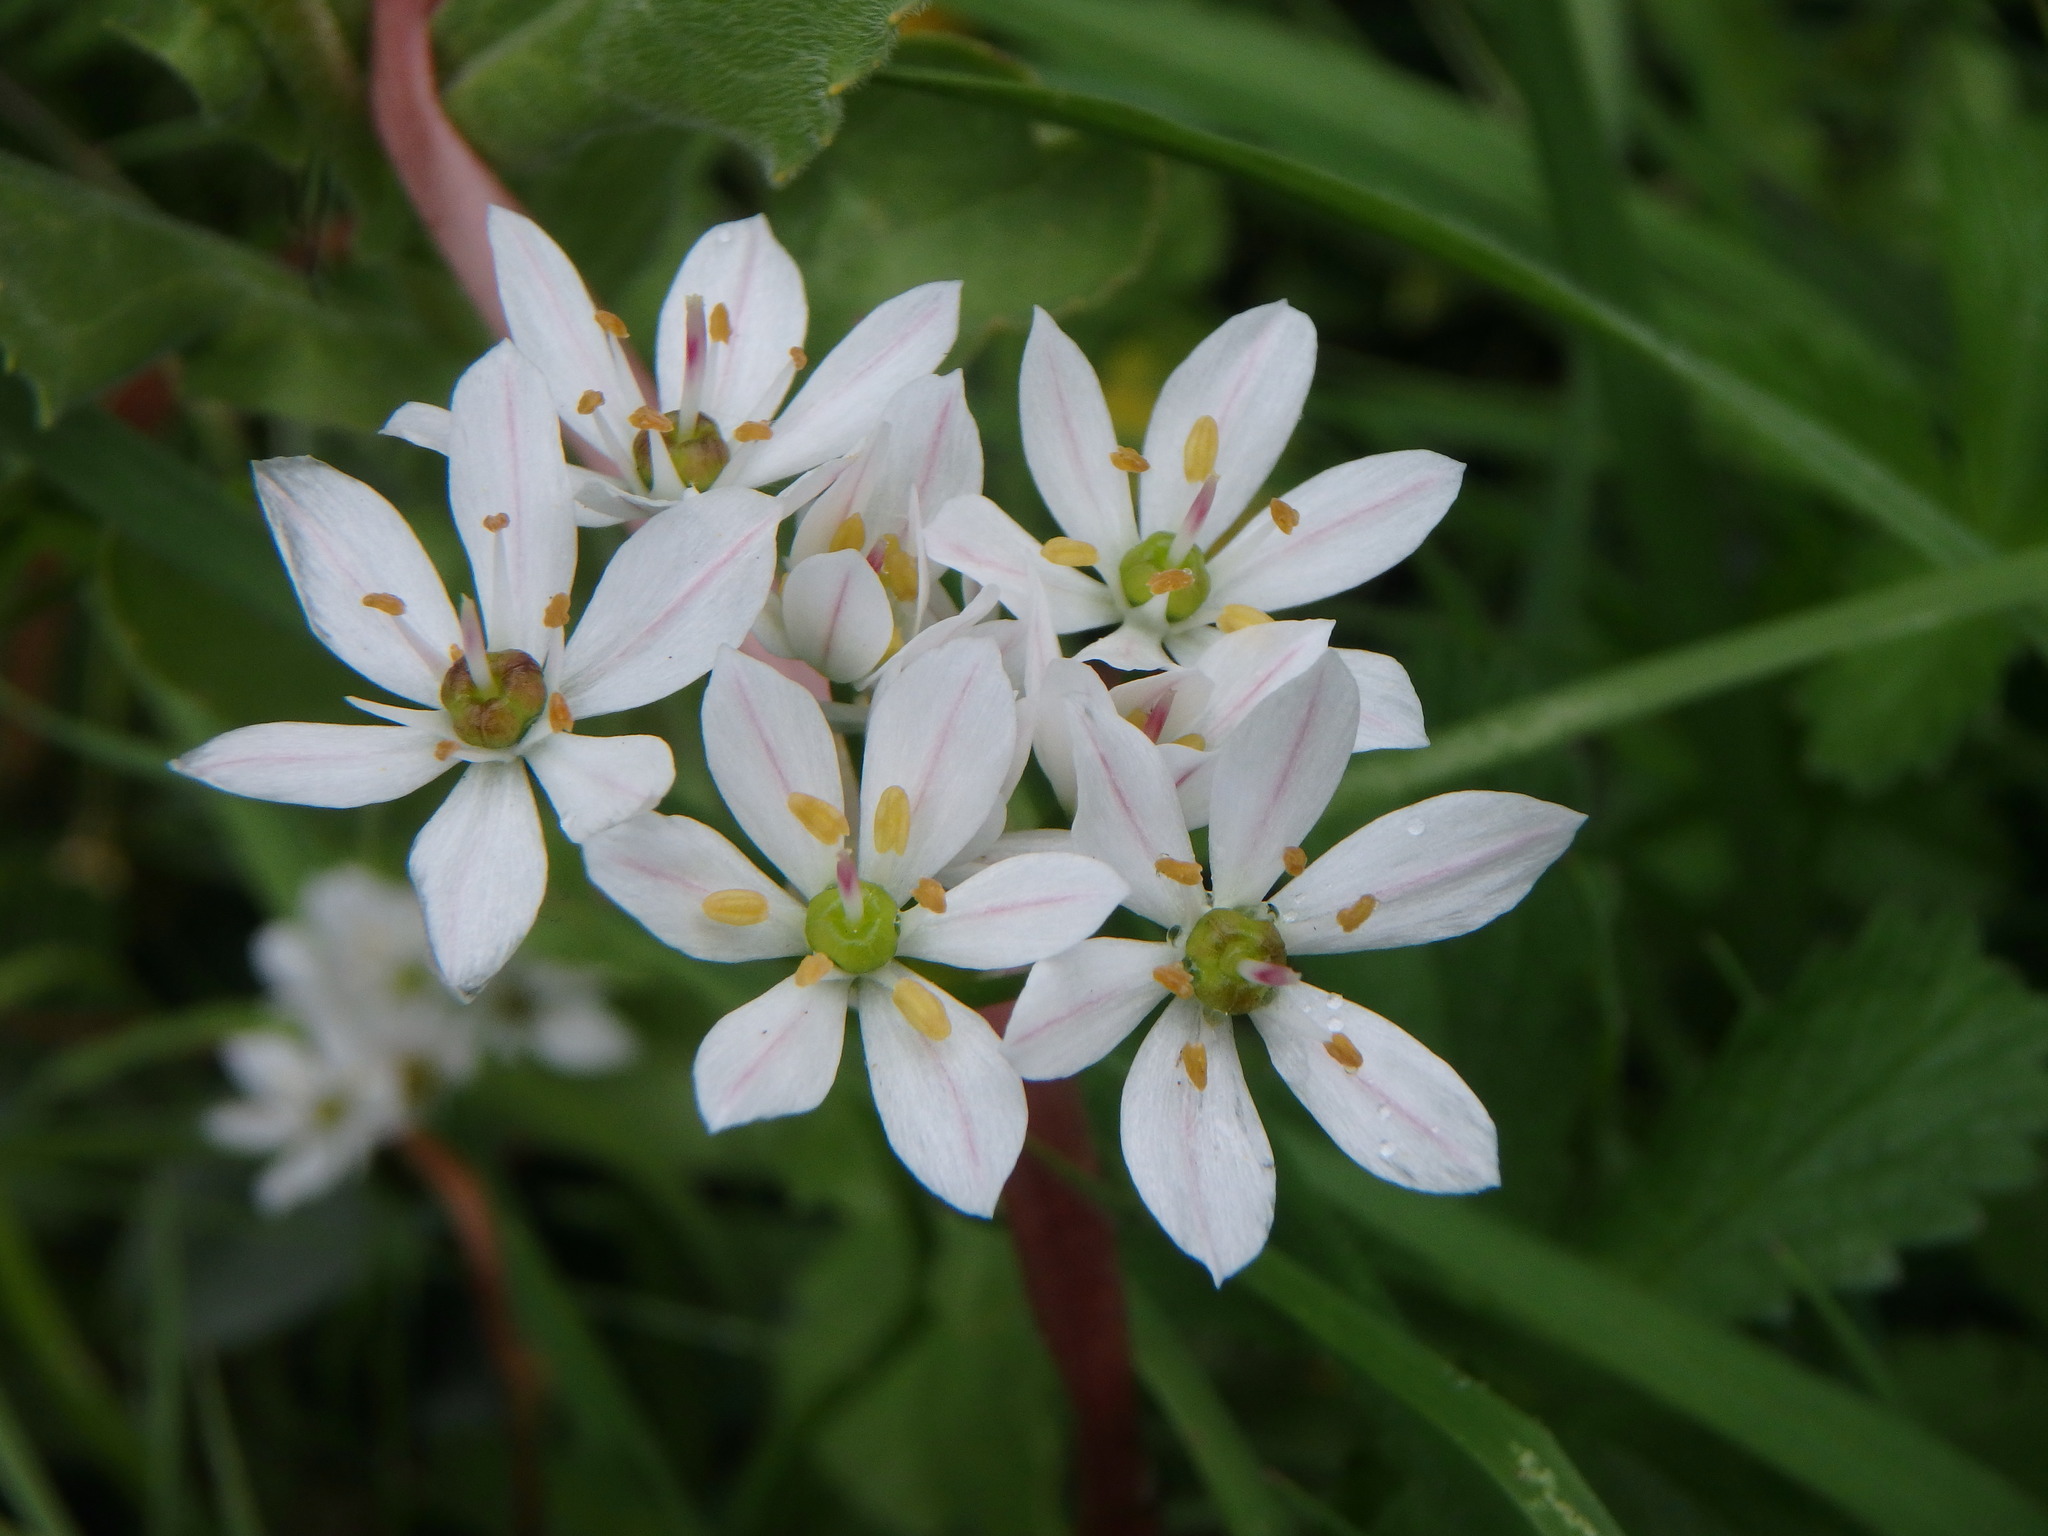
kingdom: Plantae
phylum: Tracheophyta
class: Liliopsida
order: Asparagales
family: Amaryllidaceae
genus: Allium
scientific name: Allium subhirsutum
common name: Hairy garlic
